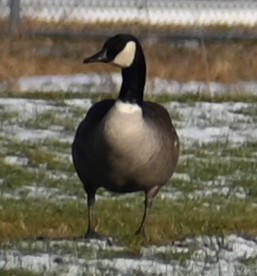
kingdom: Animalia
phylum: Chordata
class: Aves
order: Anseriformes
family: Anatidae
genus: Branta
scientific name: Branta canadensis
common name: Canada goose
